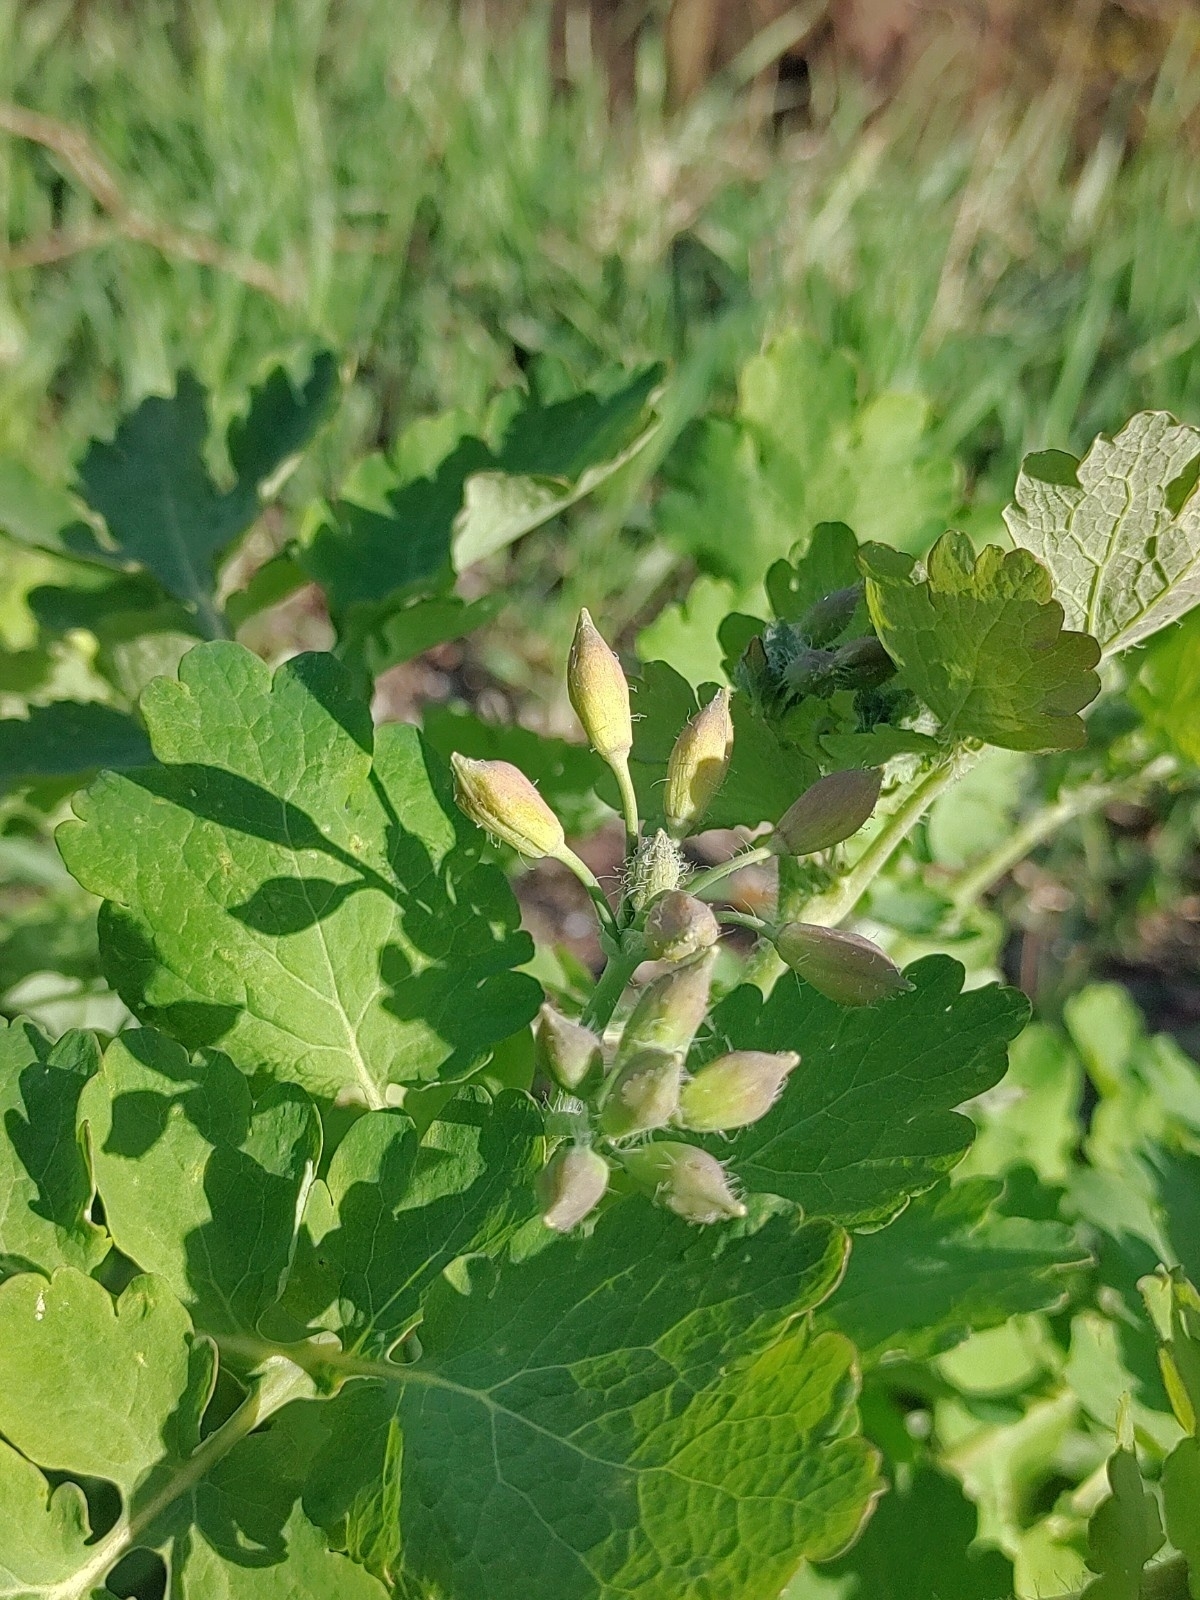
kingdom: Plantae
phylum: Tracheophyta
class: Magnoliopsida
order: Ranunculales
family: Papaveraceae
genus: Chelidonium
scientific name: Chelidonium majus
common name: Greater celandine
